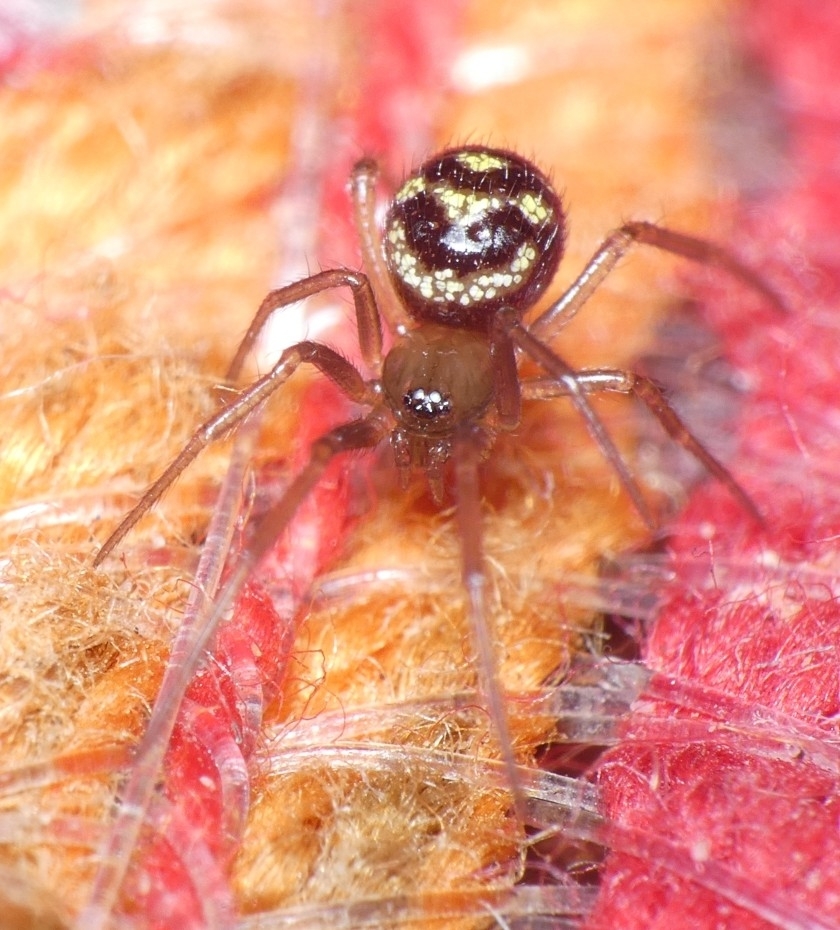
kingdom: Animalia
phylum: Arthropoda
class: Arachnida
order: Araneae
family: Theridiidae
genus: Steatoda
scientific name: Steatoda grossa
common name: False black widow
